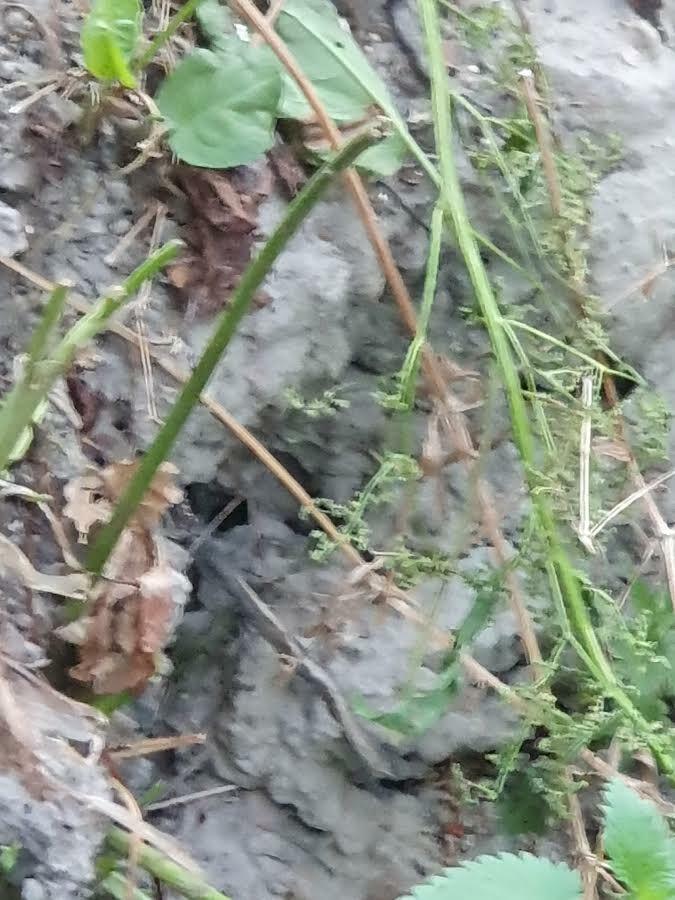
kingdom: Animalia
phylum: Arthropoda
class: Insecta
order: Hymenoptera
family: Vespidae
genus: Vespa
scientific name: Vespa velutina
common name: Asian hornet
